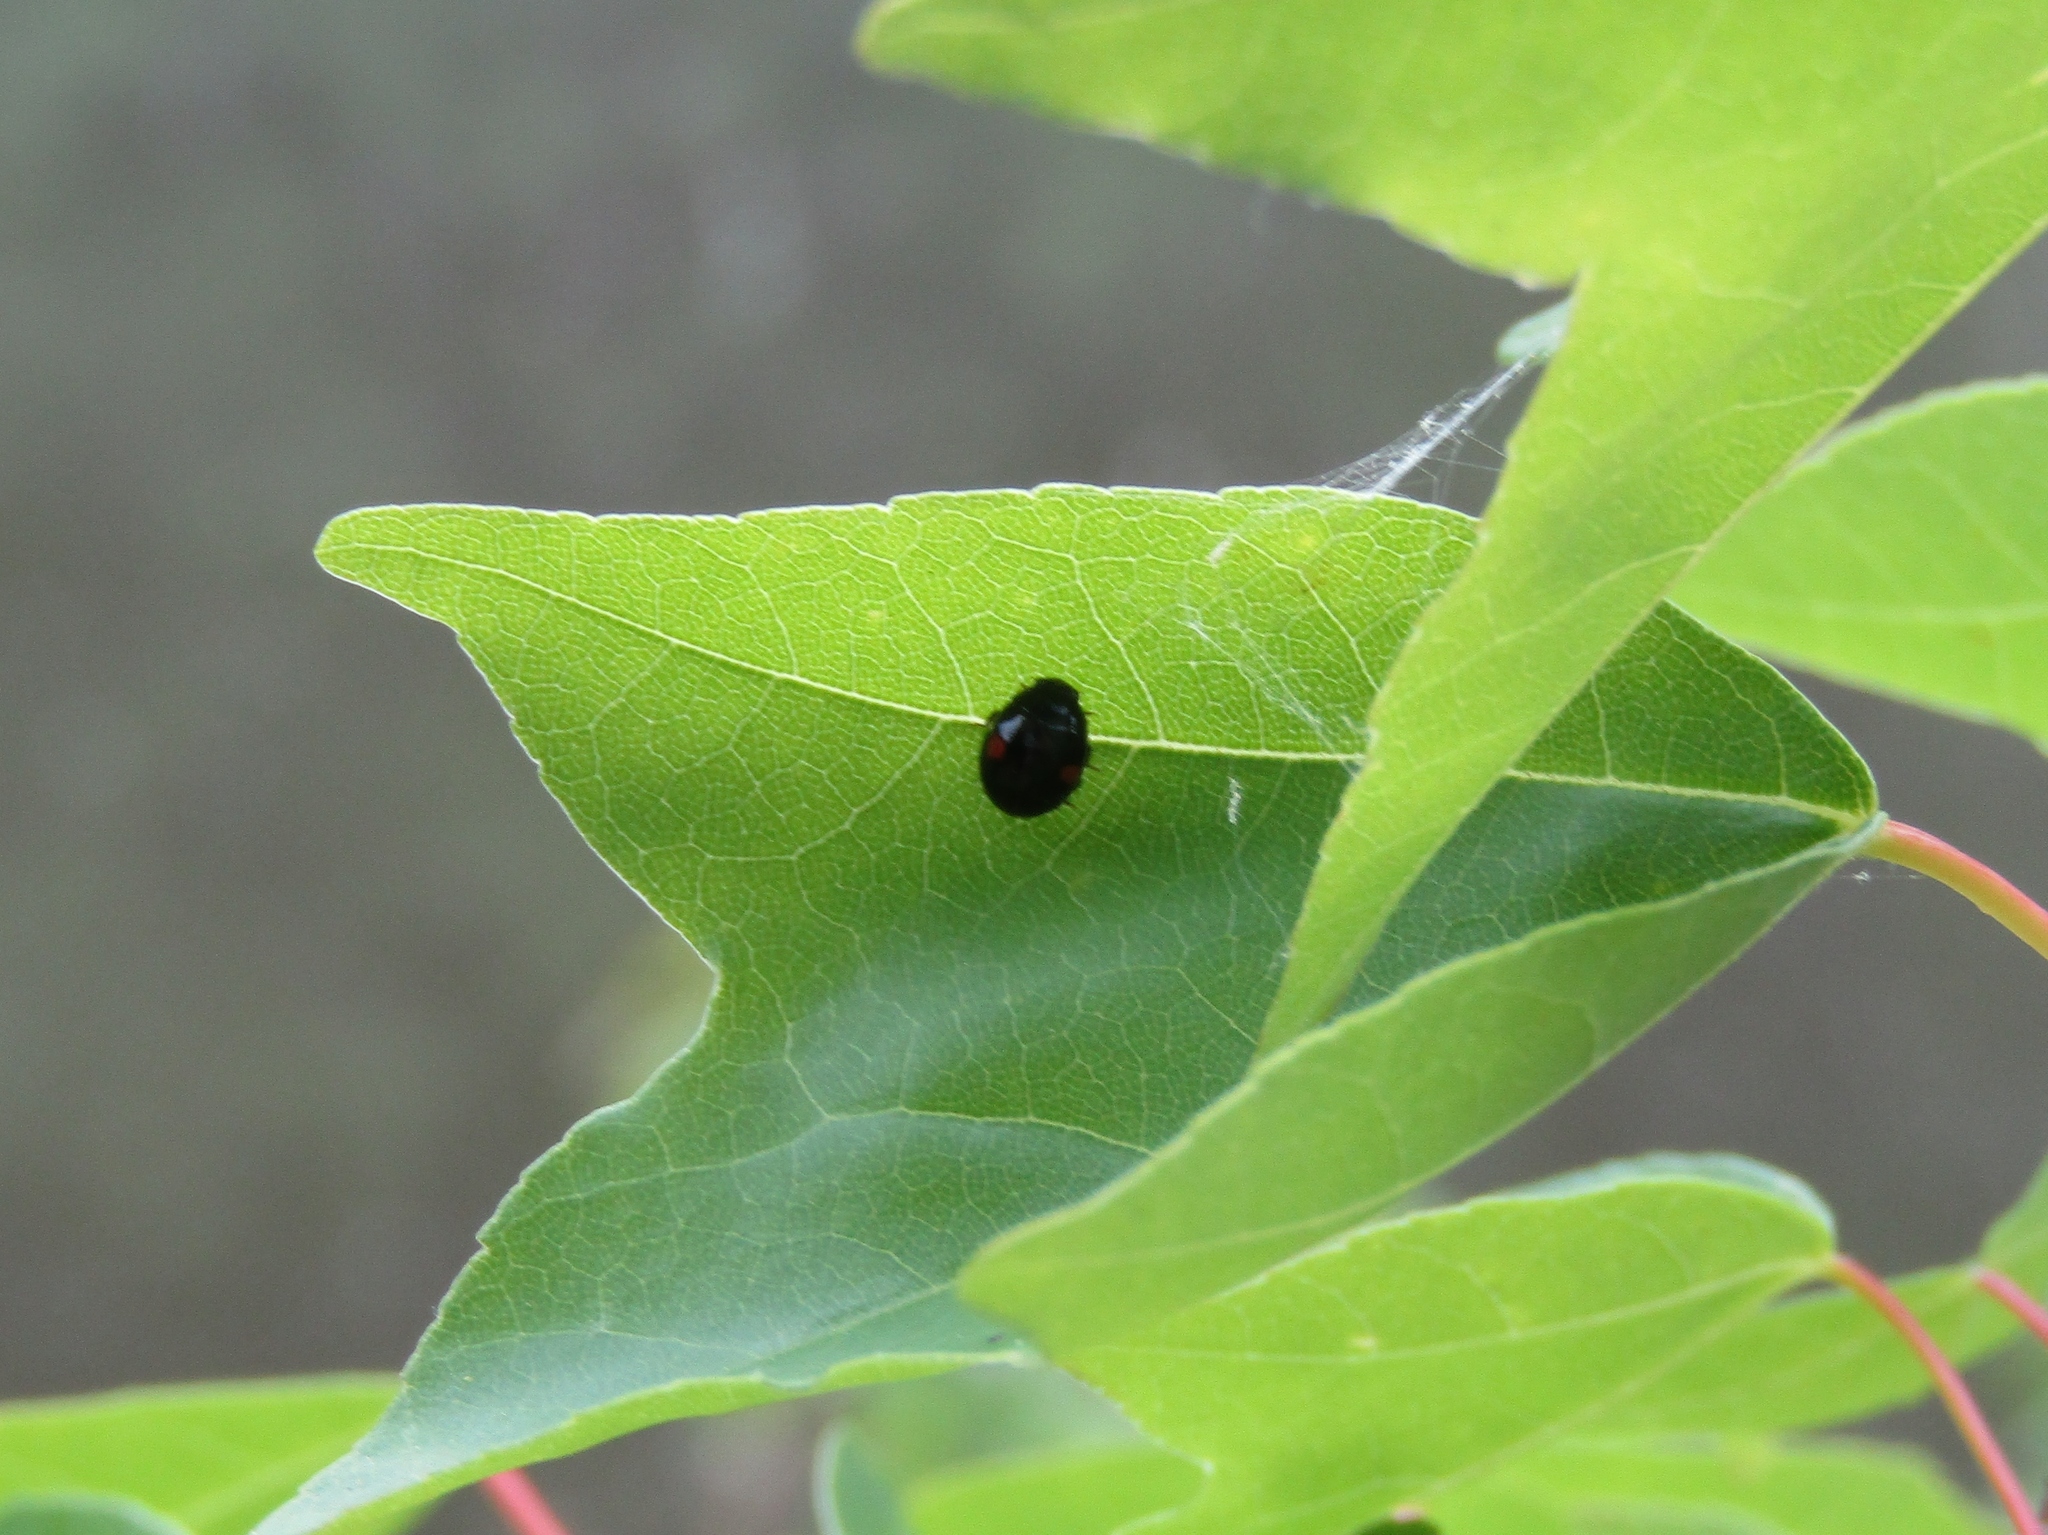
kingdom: Animalia
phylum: Arthropoda
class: Insecta
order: Coleoptera
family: Coccinellidae
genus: Chilocorus
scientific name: Chilocorus stigma
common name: Twicestabbed lady beetle
